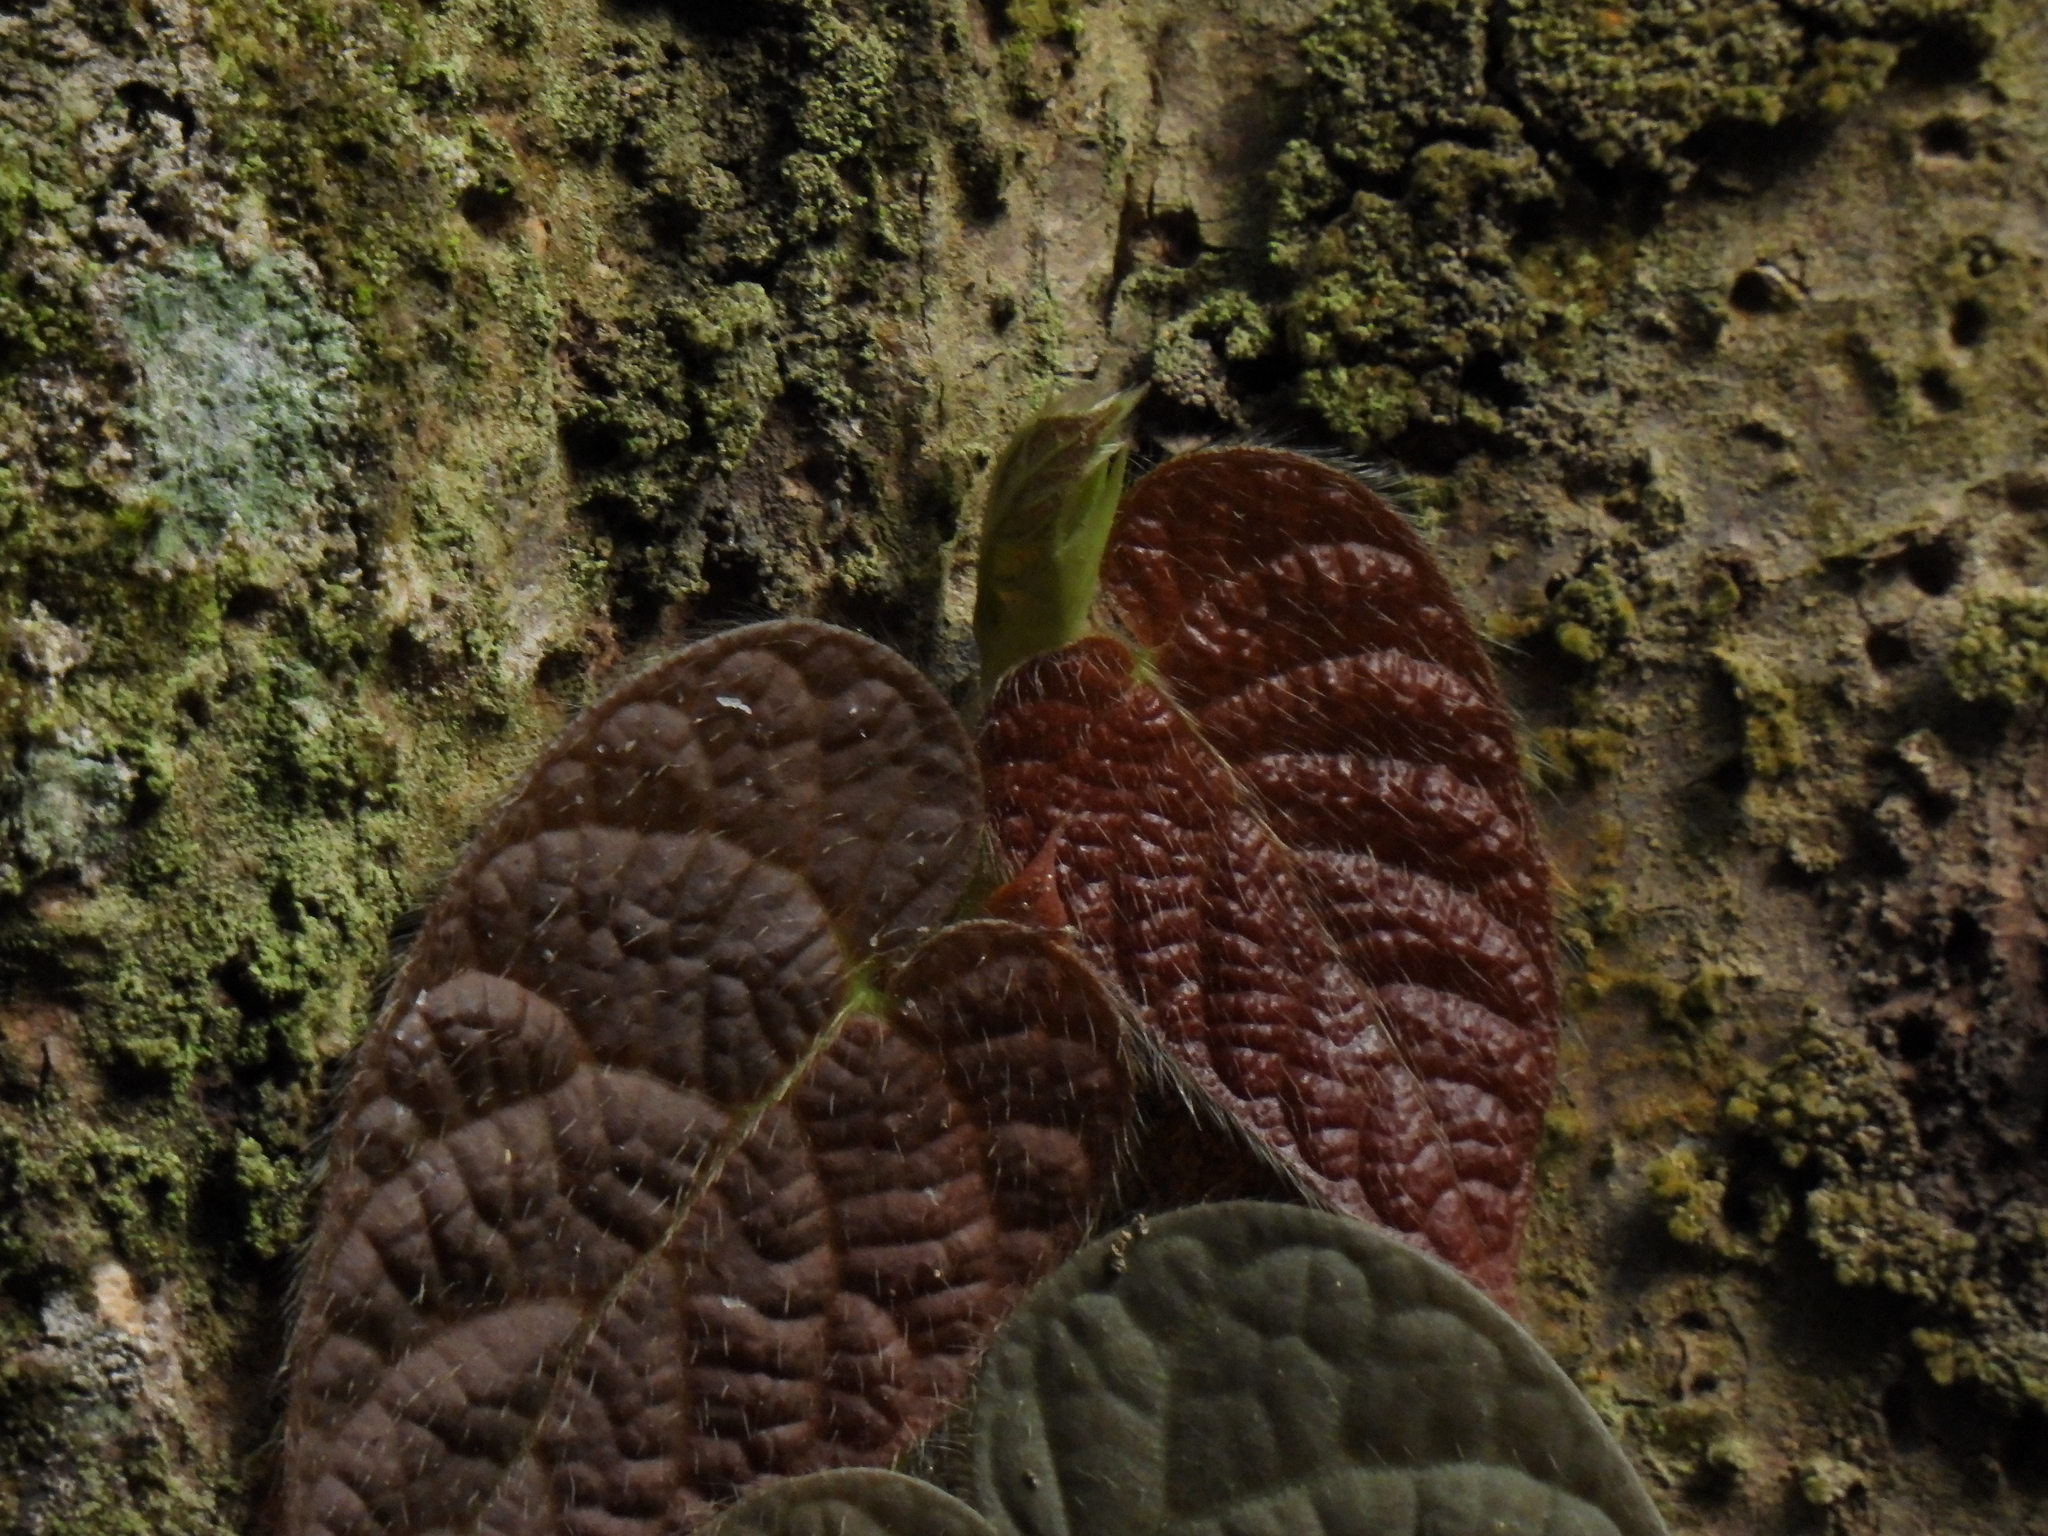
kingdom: Plantae
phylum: Tracheophyta
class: Magnoliopsida
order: Rosales
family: Moraceae
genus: Ficus
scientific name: Ficus villosa
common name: Villous fig
